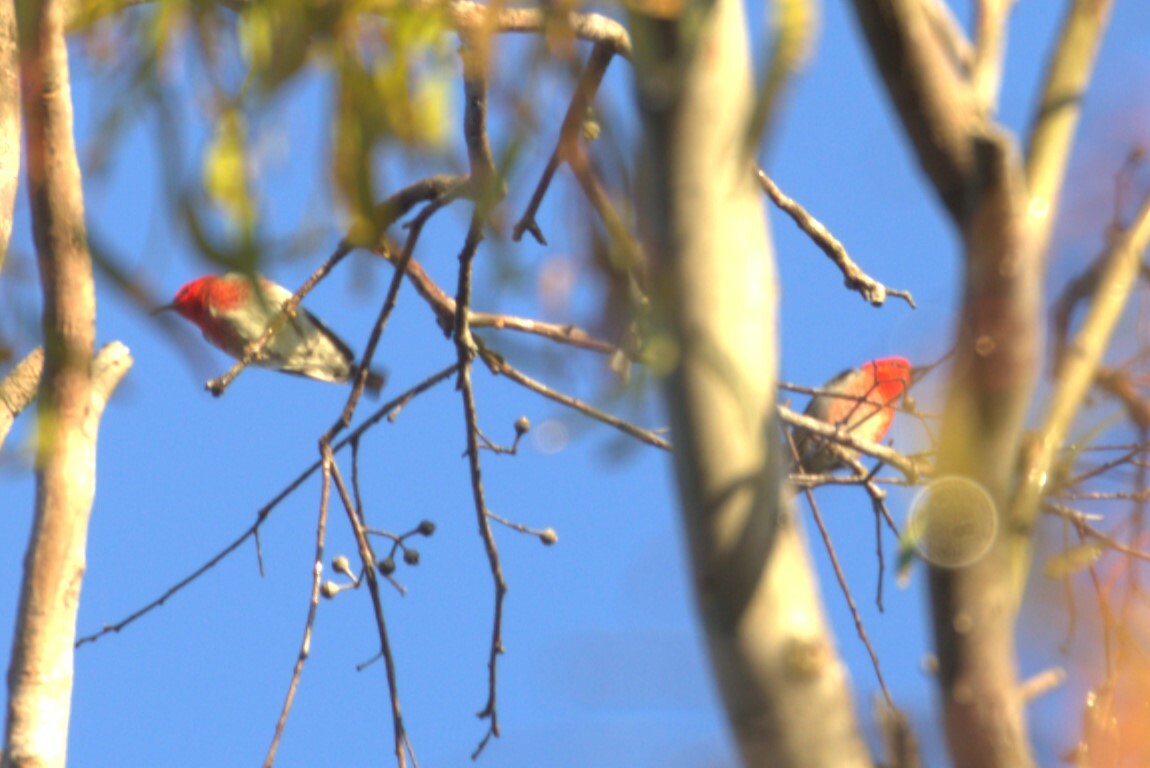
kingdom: Animalia
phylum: Chordata
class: Aves
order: Passeriformes
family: Meliphagidae
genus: Myzomela
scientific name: Myzomela sanguinolenta
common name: Scarlet myzomela
